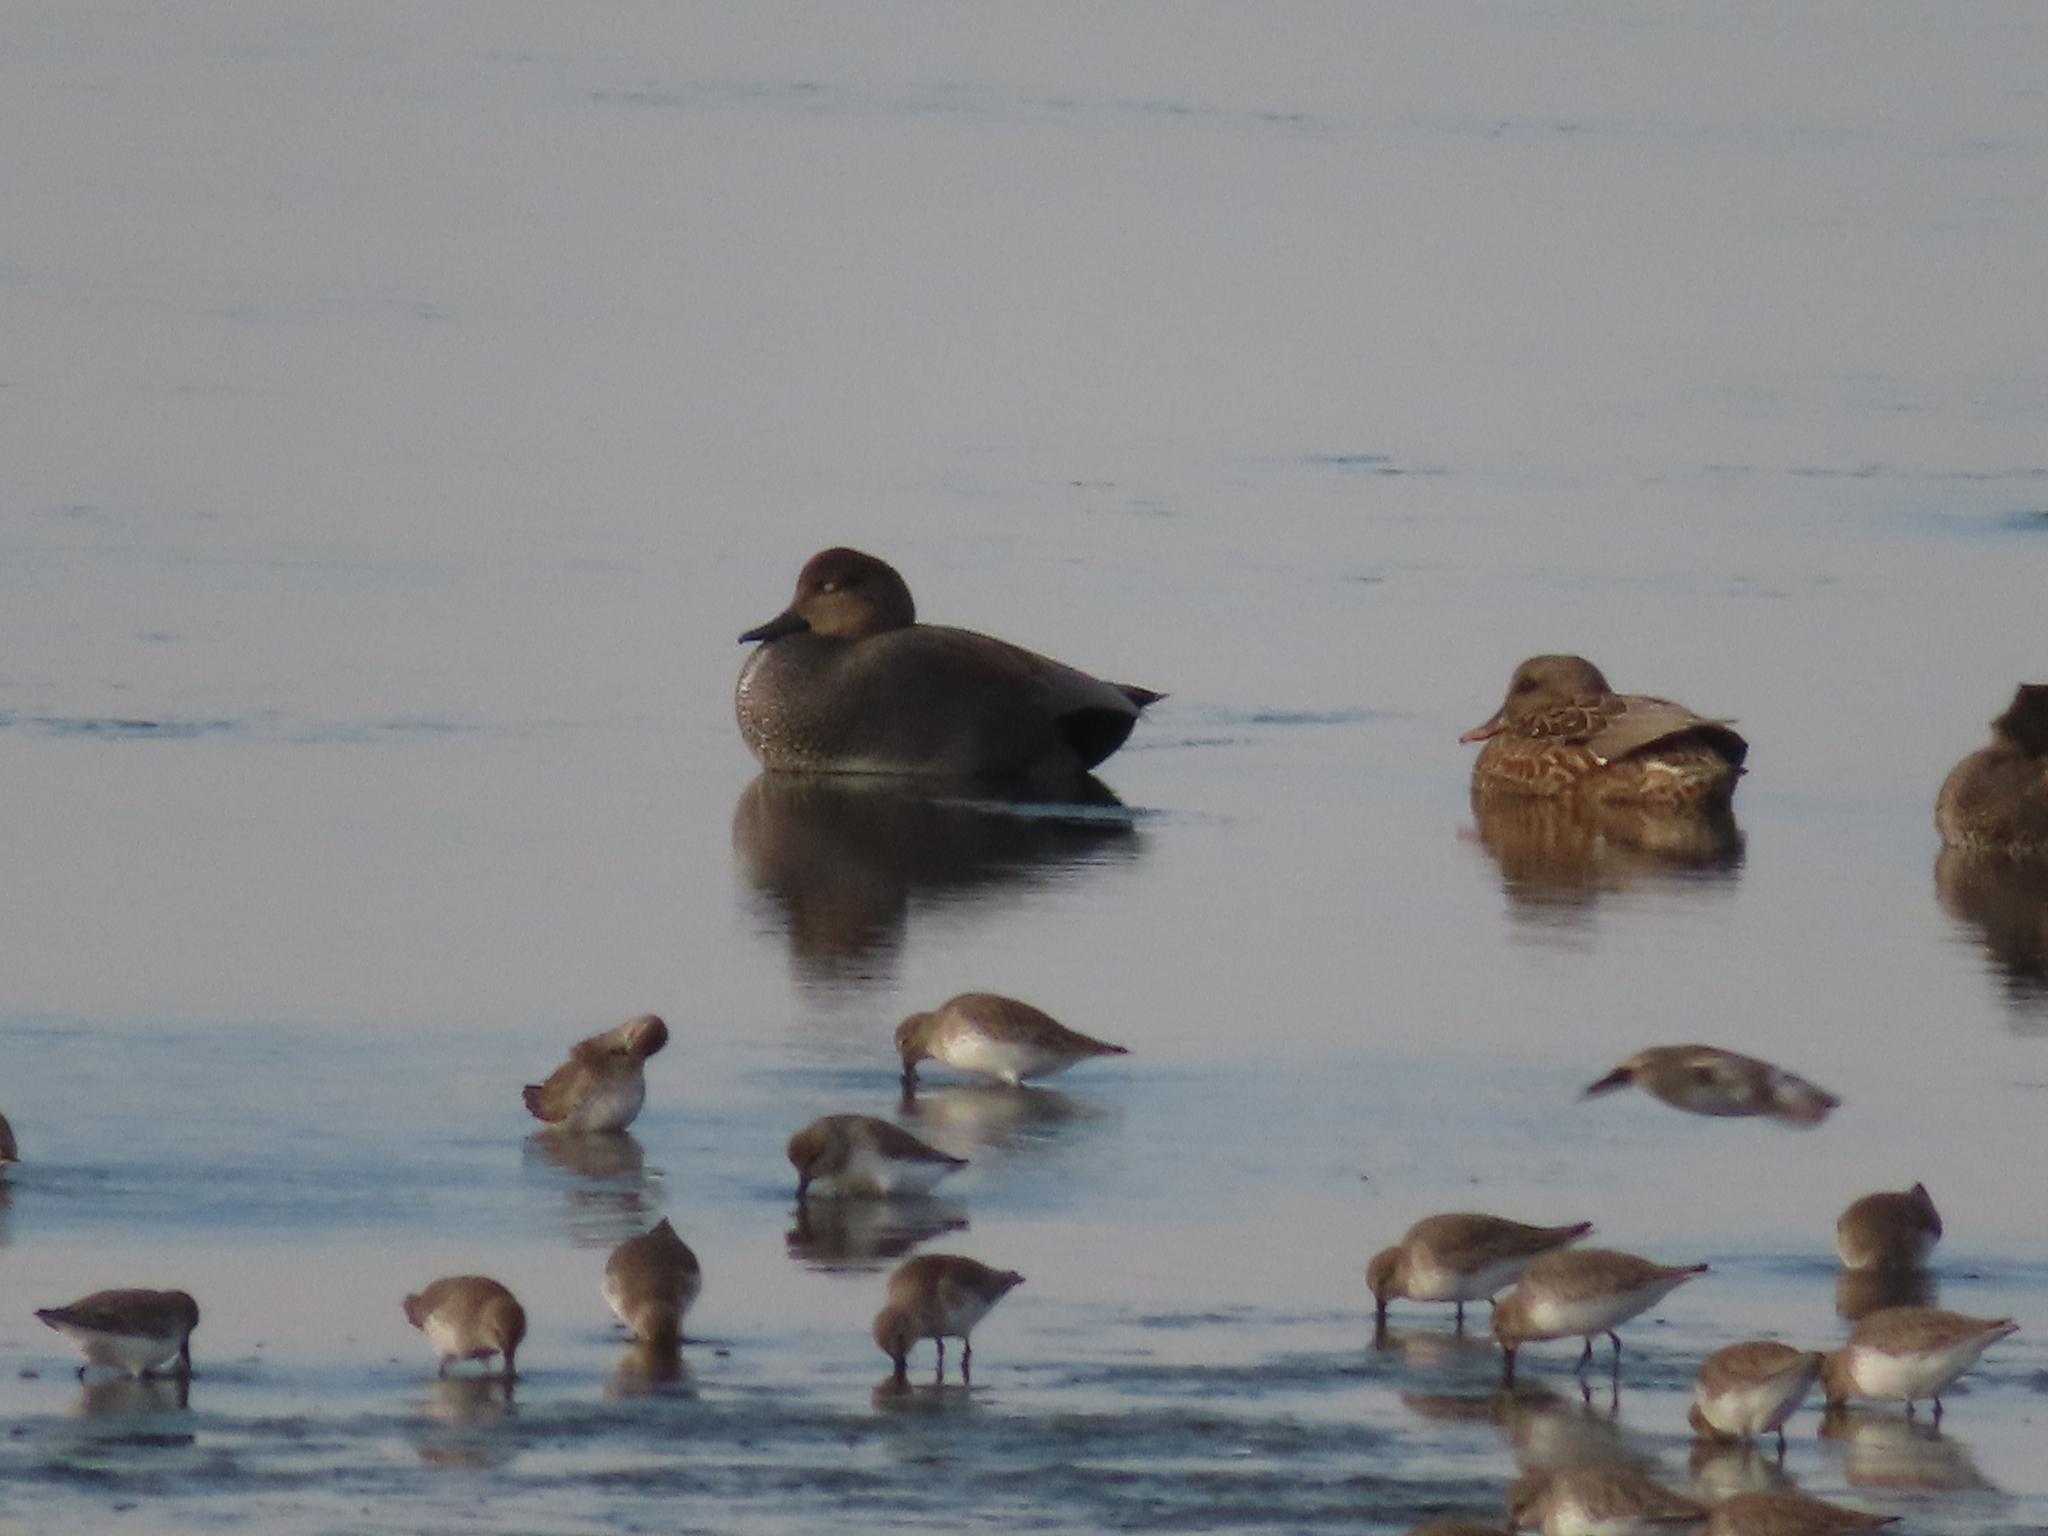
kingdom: Animalia
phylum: Chordata
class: Aves
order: Anseriformes
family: Anatidae
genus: Mareca
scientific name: Mareca strepera
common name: Gadwall
